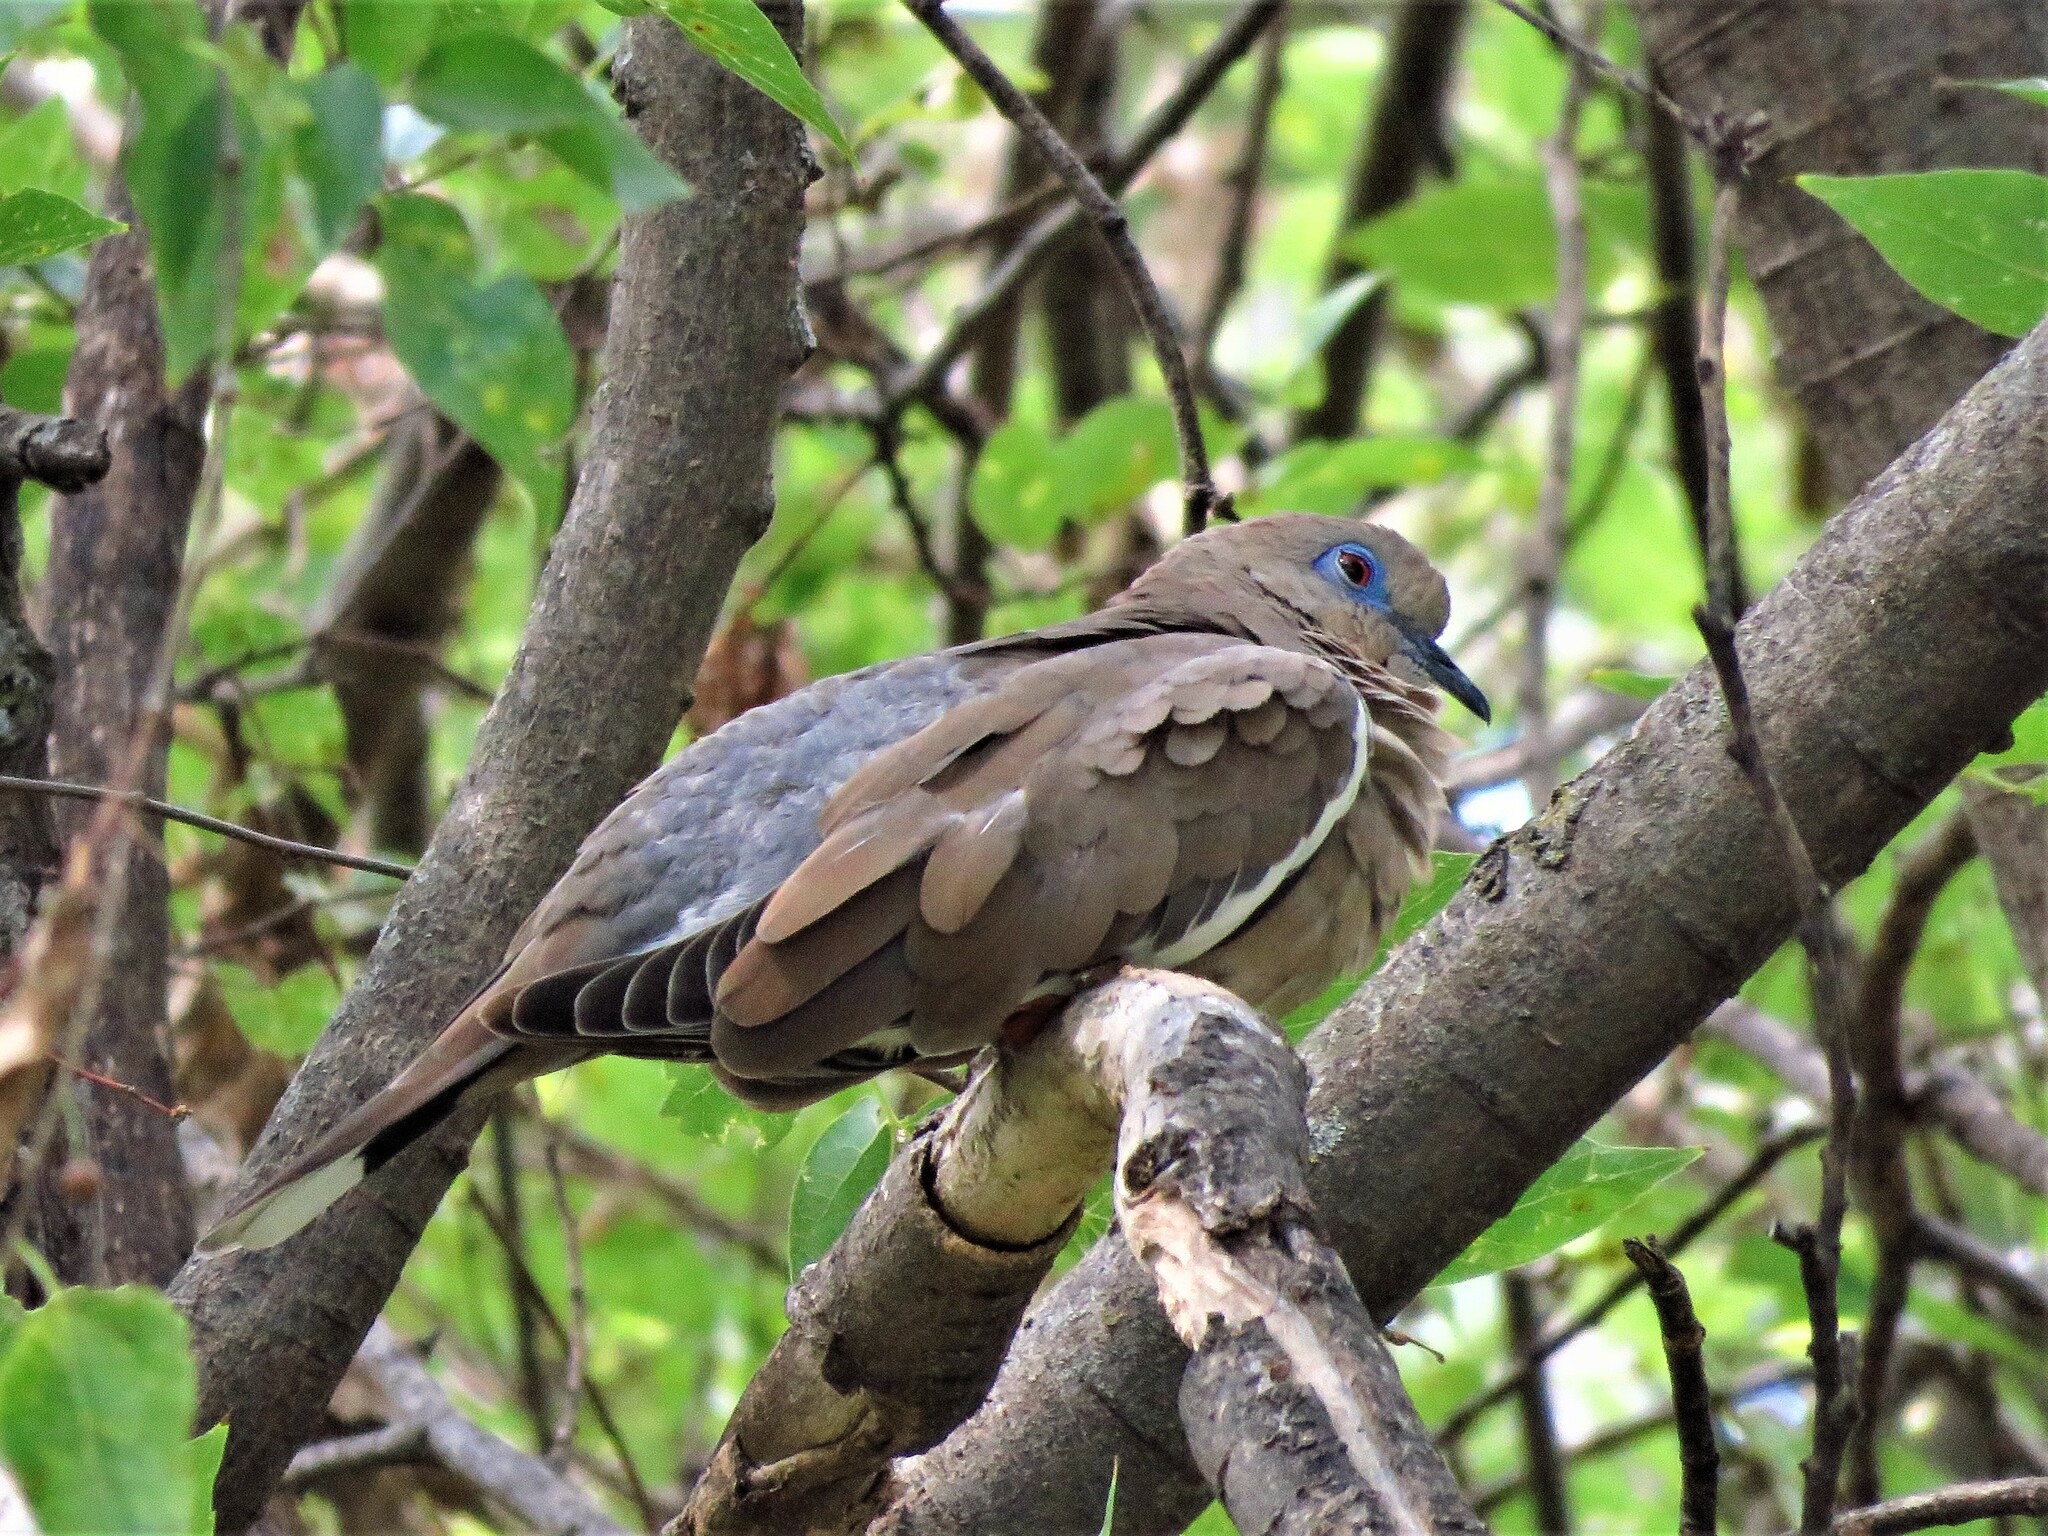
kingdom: Animalia
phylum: Chordata
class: Aves
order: Columbiformes
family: Columbidae
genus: Zenaida
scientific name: Zenaida asiatica
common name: White-winged dove
